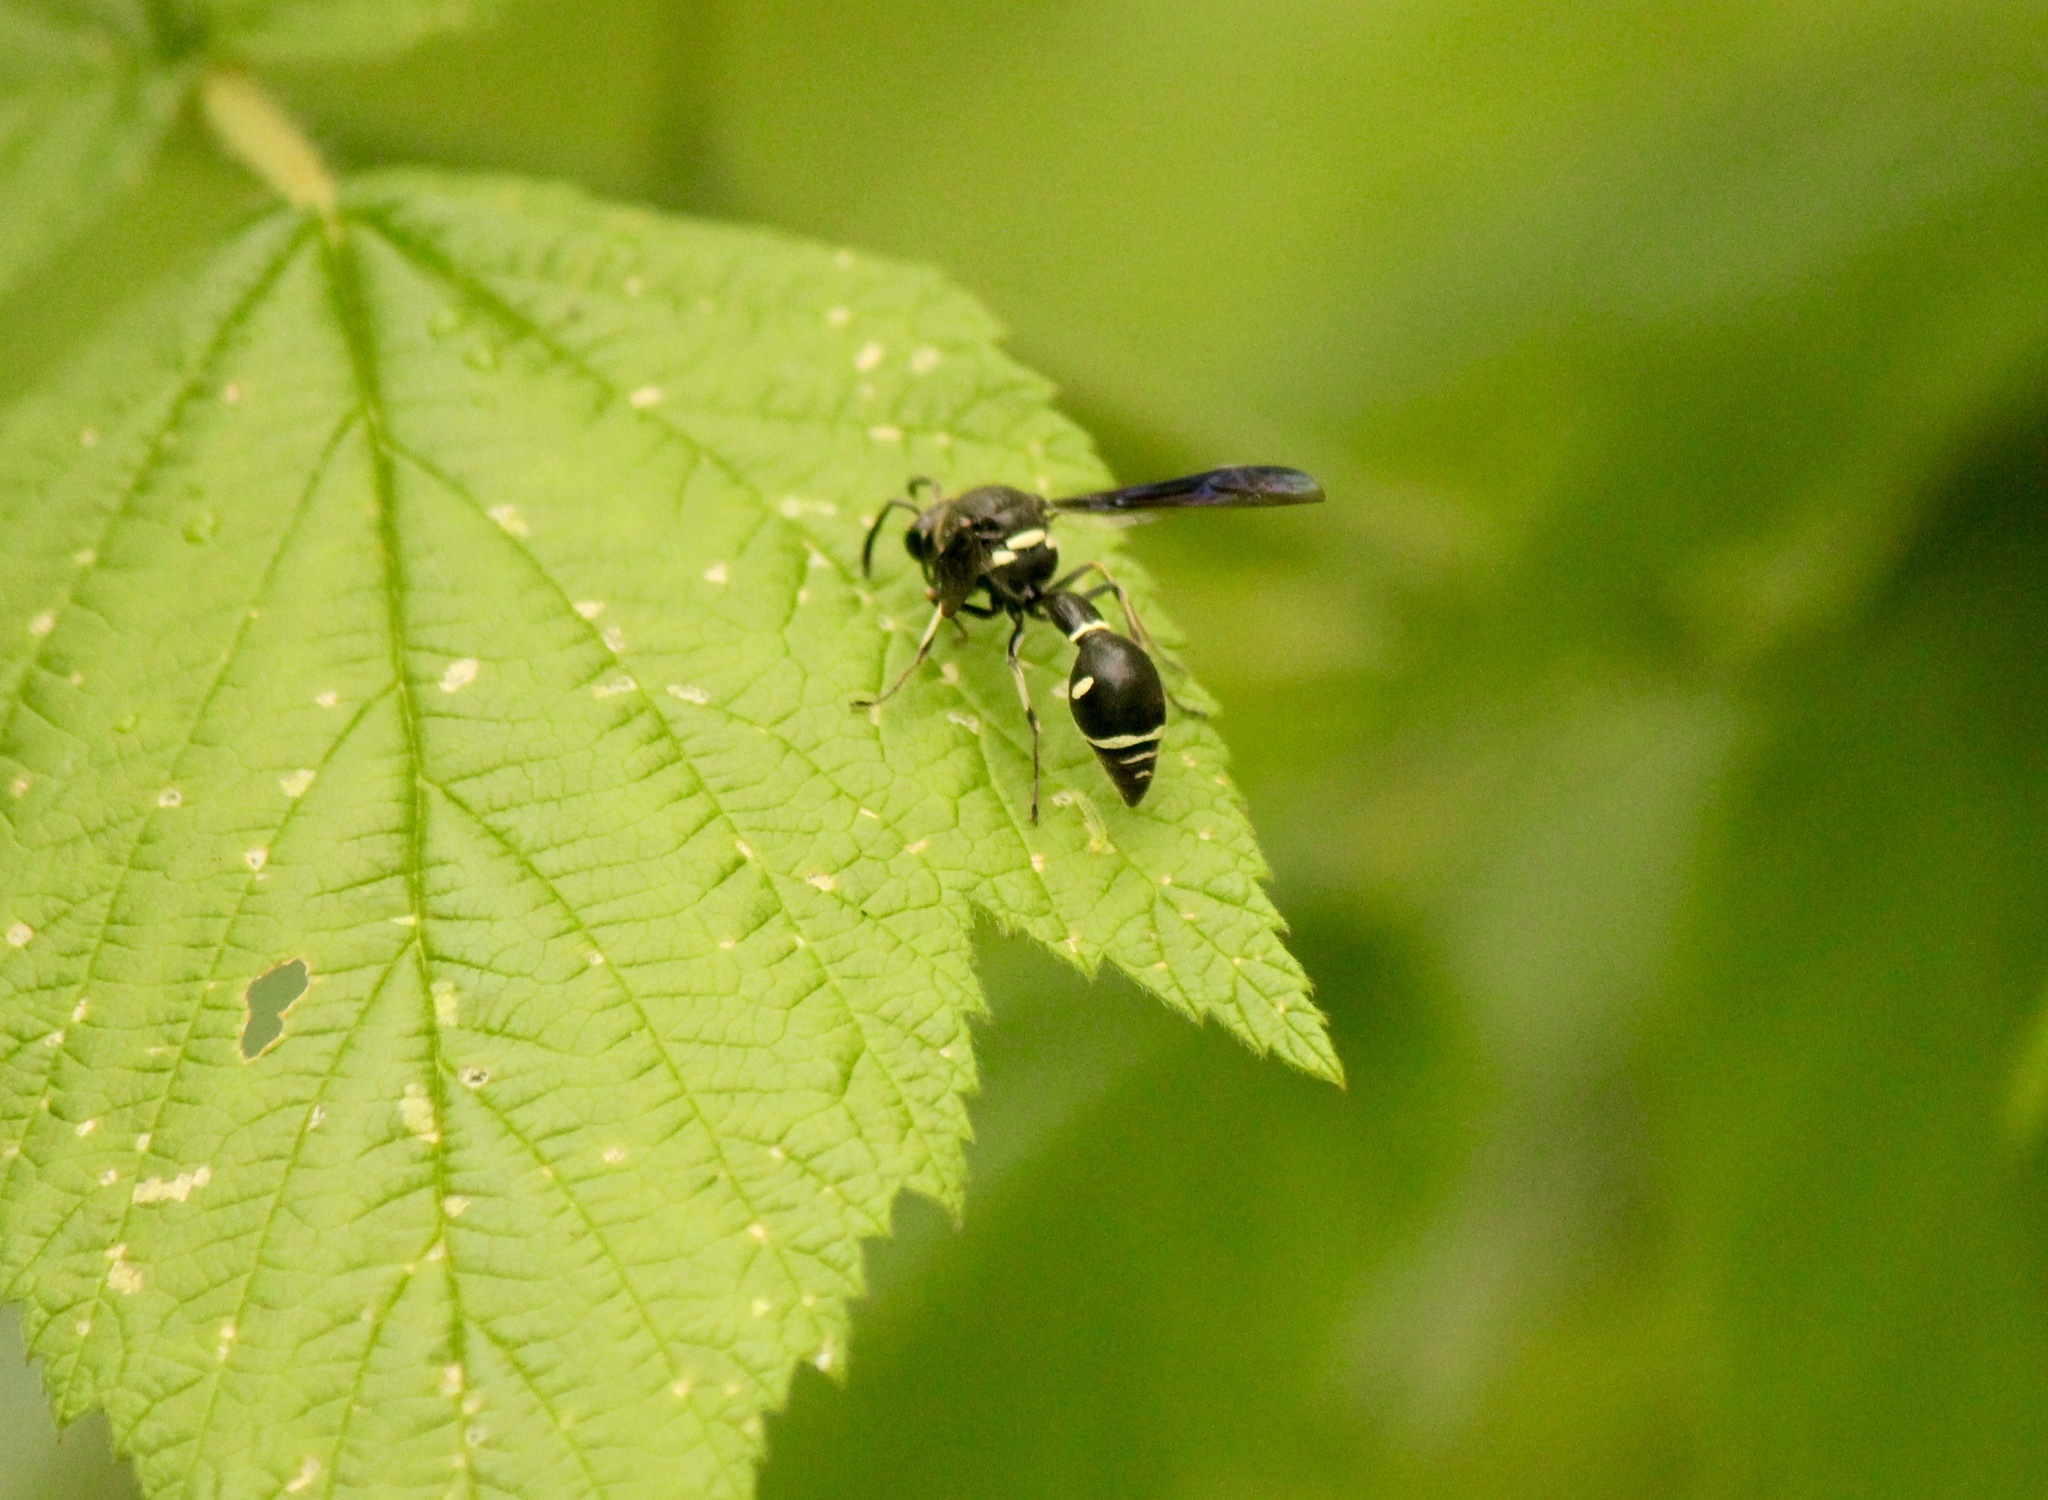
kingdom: Animalia
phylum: Arthropoda
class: Insecta
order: Hymenoptera
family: Vespidae
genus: Eumenes
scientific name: Eumenes fraternus
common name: Fraternal potter wasp
